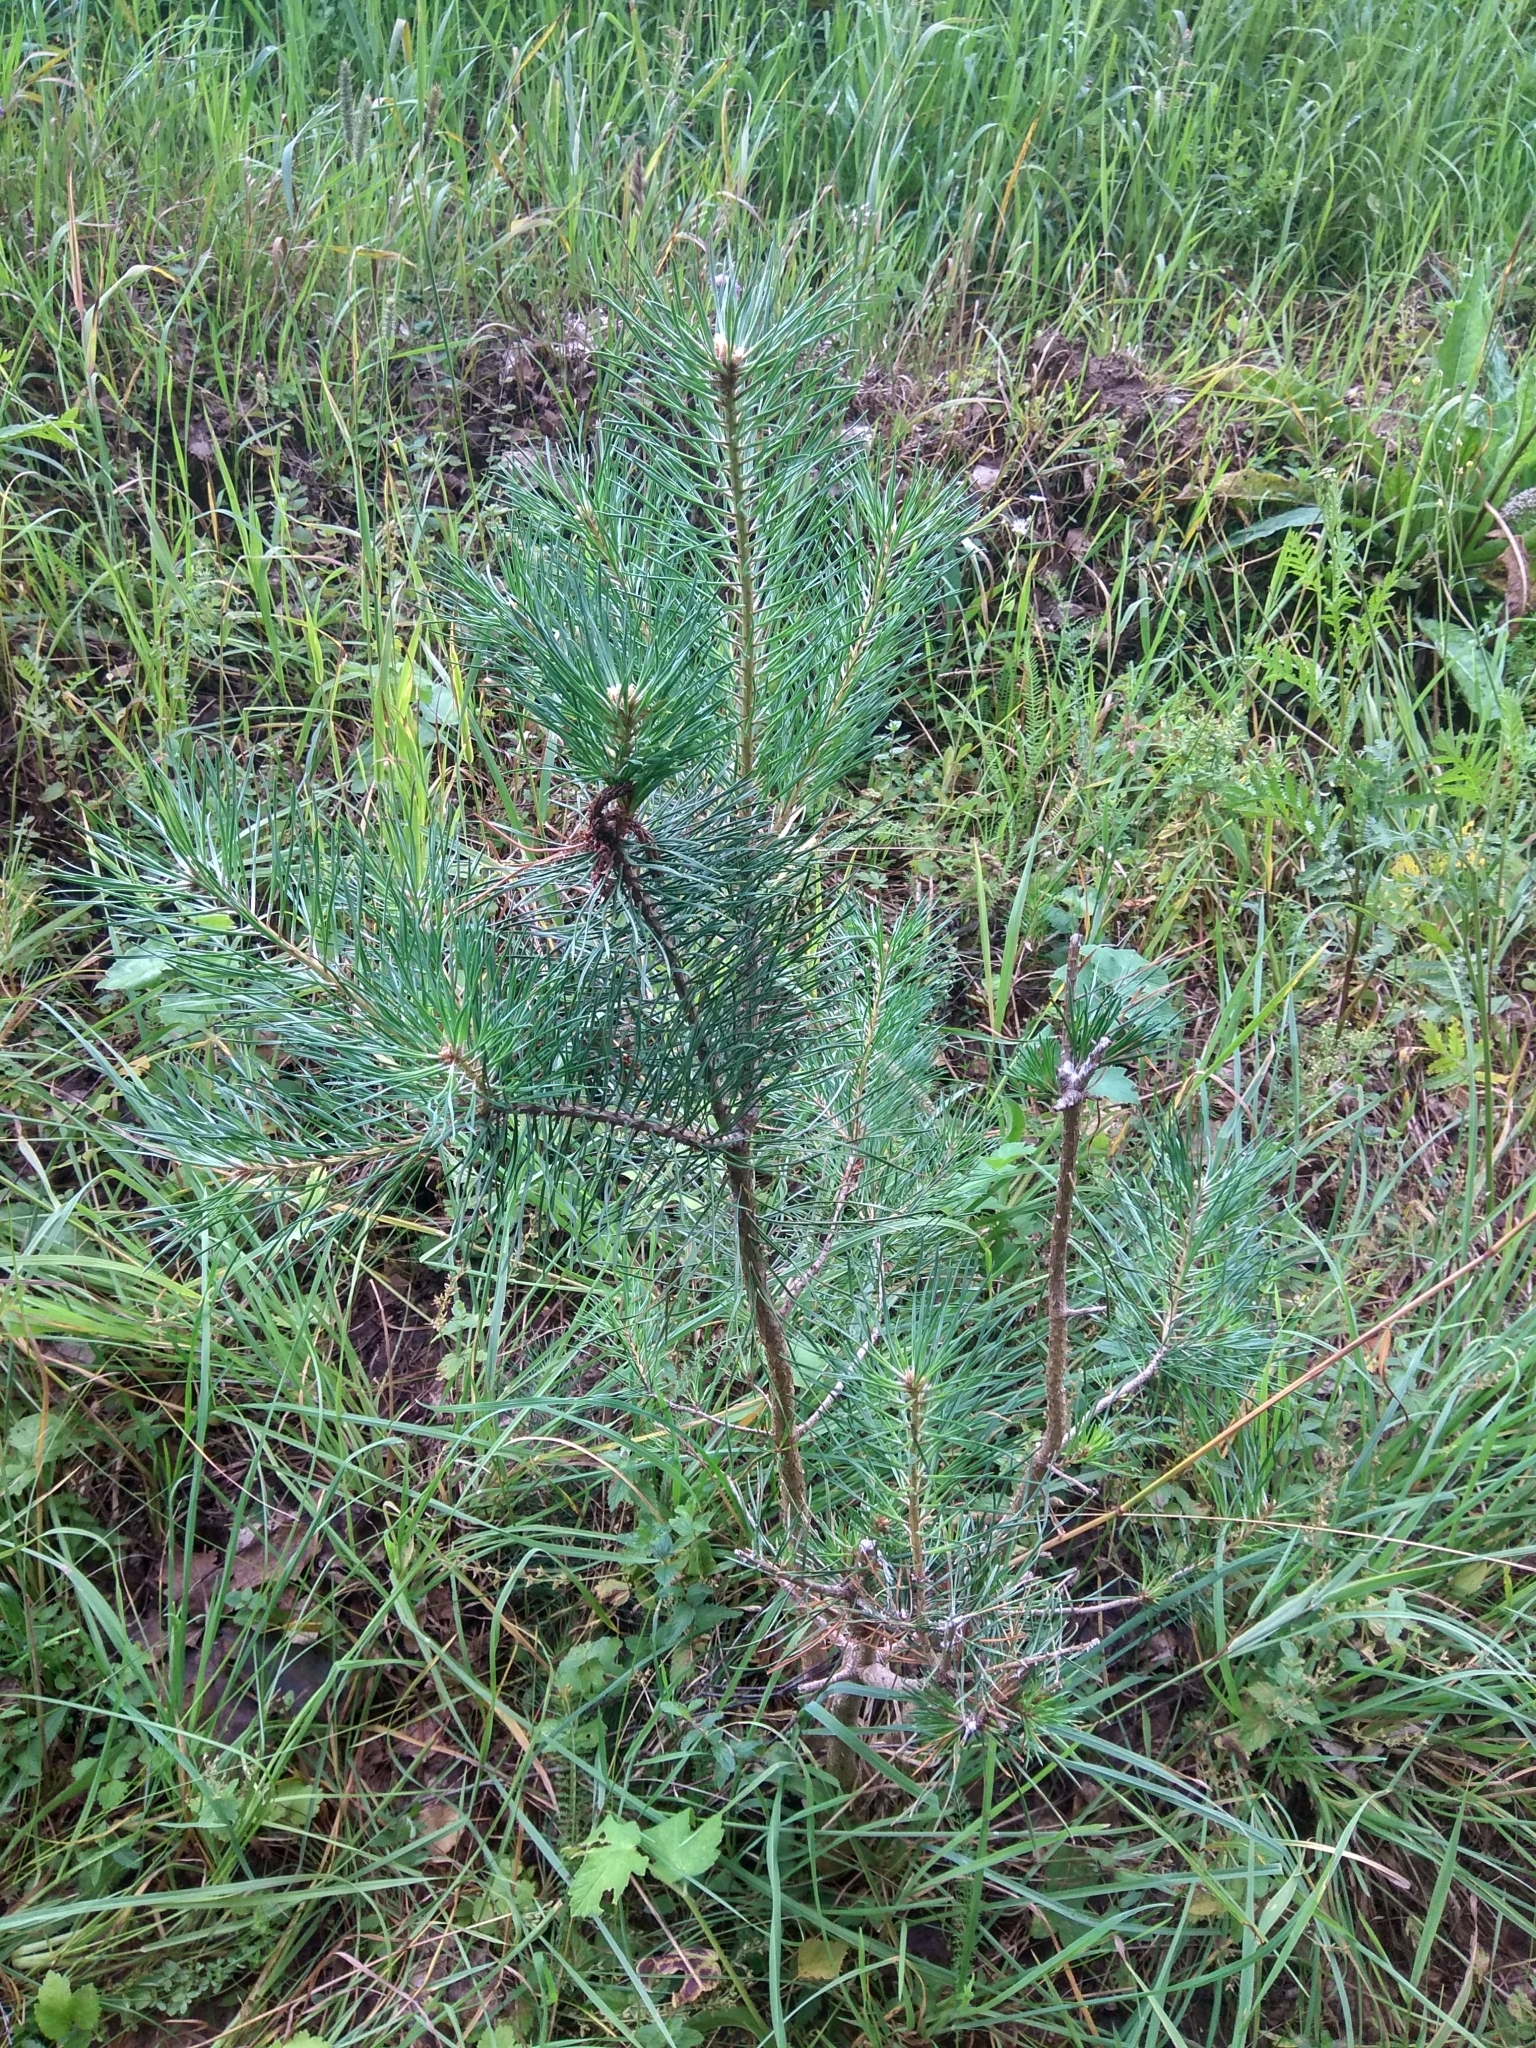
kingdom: Plantae
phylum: Tracheophyta
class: Pinopsida
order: Pinales
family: Pinaceae
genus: Pinus
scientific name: Pinus sylvestris
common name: Scots pine
